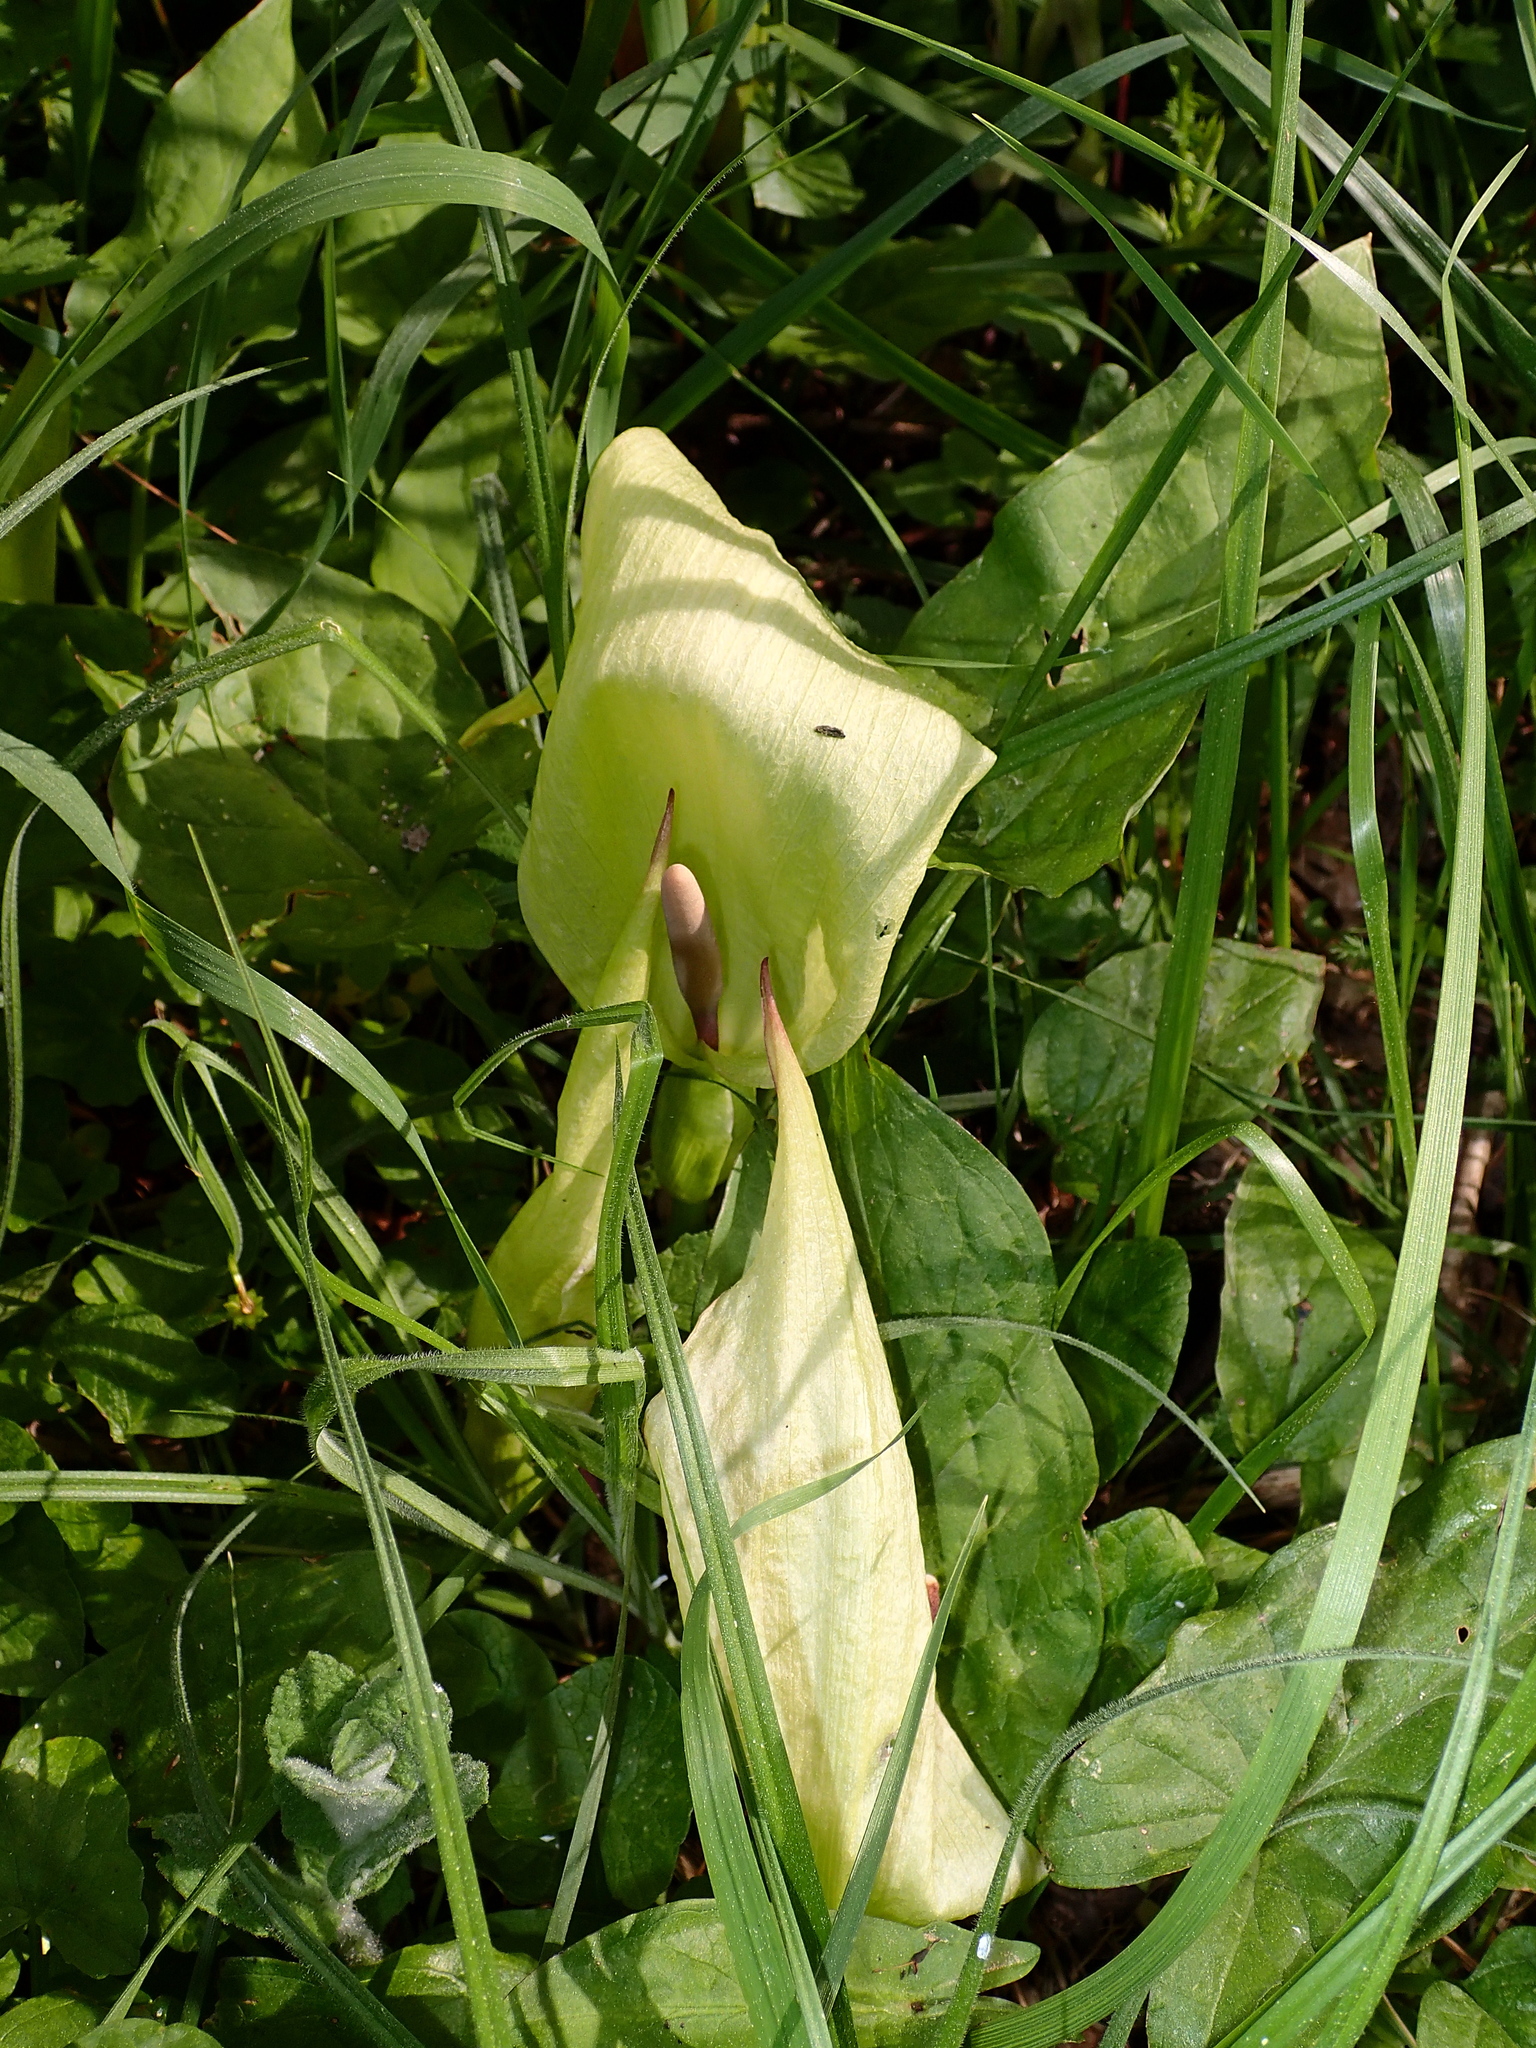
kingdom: Plantae
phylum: Tracheophyta
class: Liliopsida
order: Alismatales
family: Araceae
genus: Arum
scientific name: Arum maculatum
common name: Lords-and-ladies
